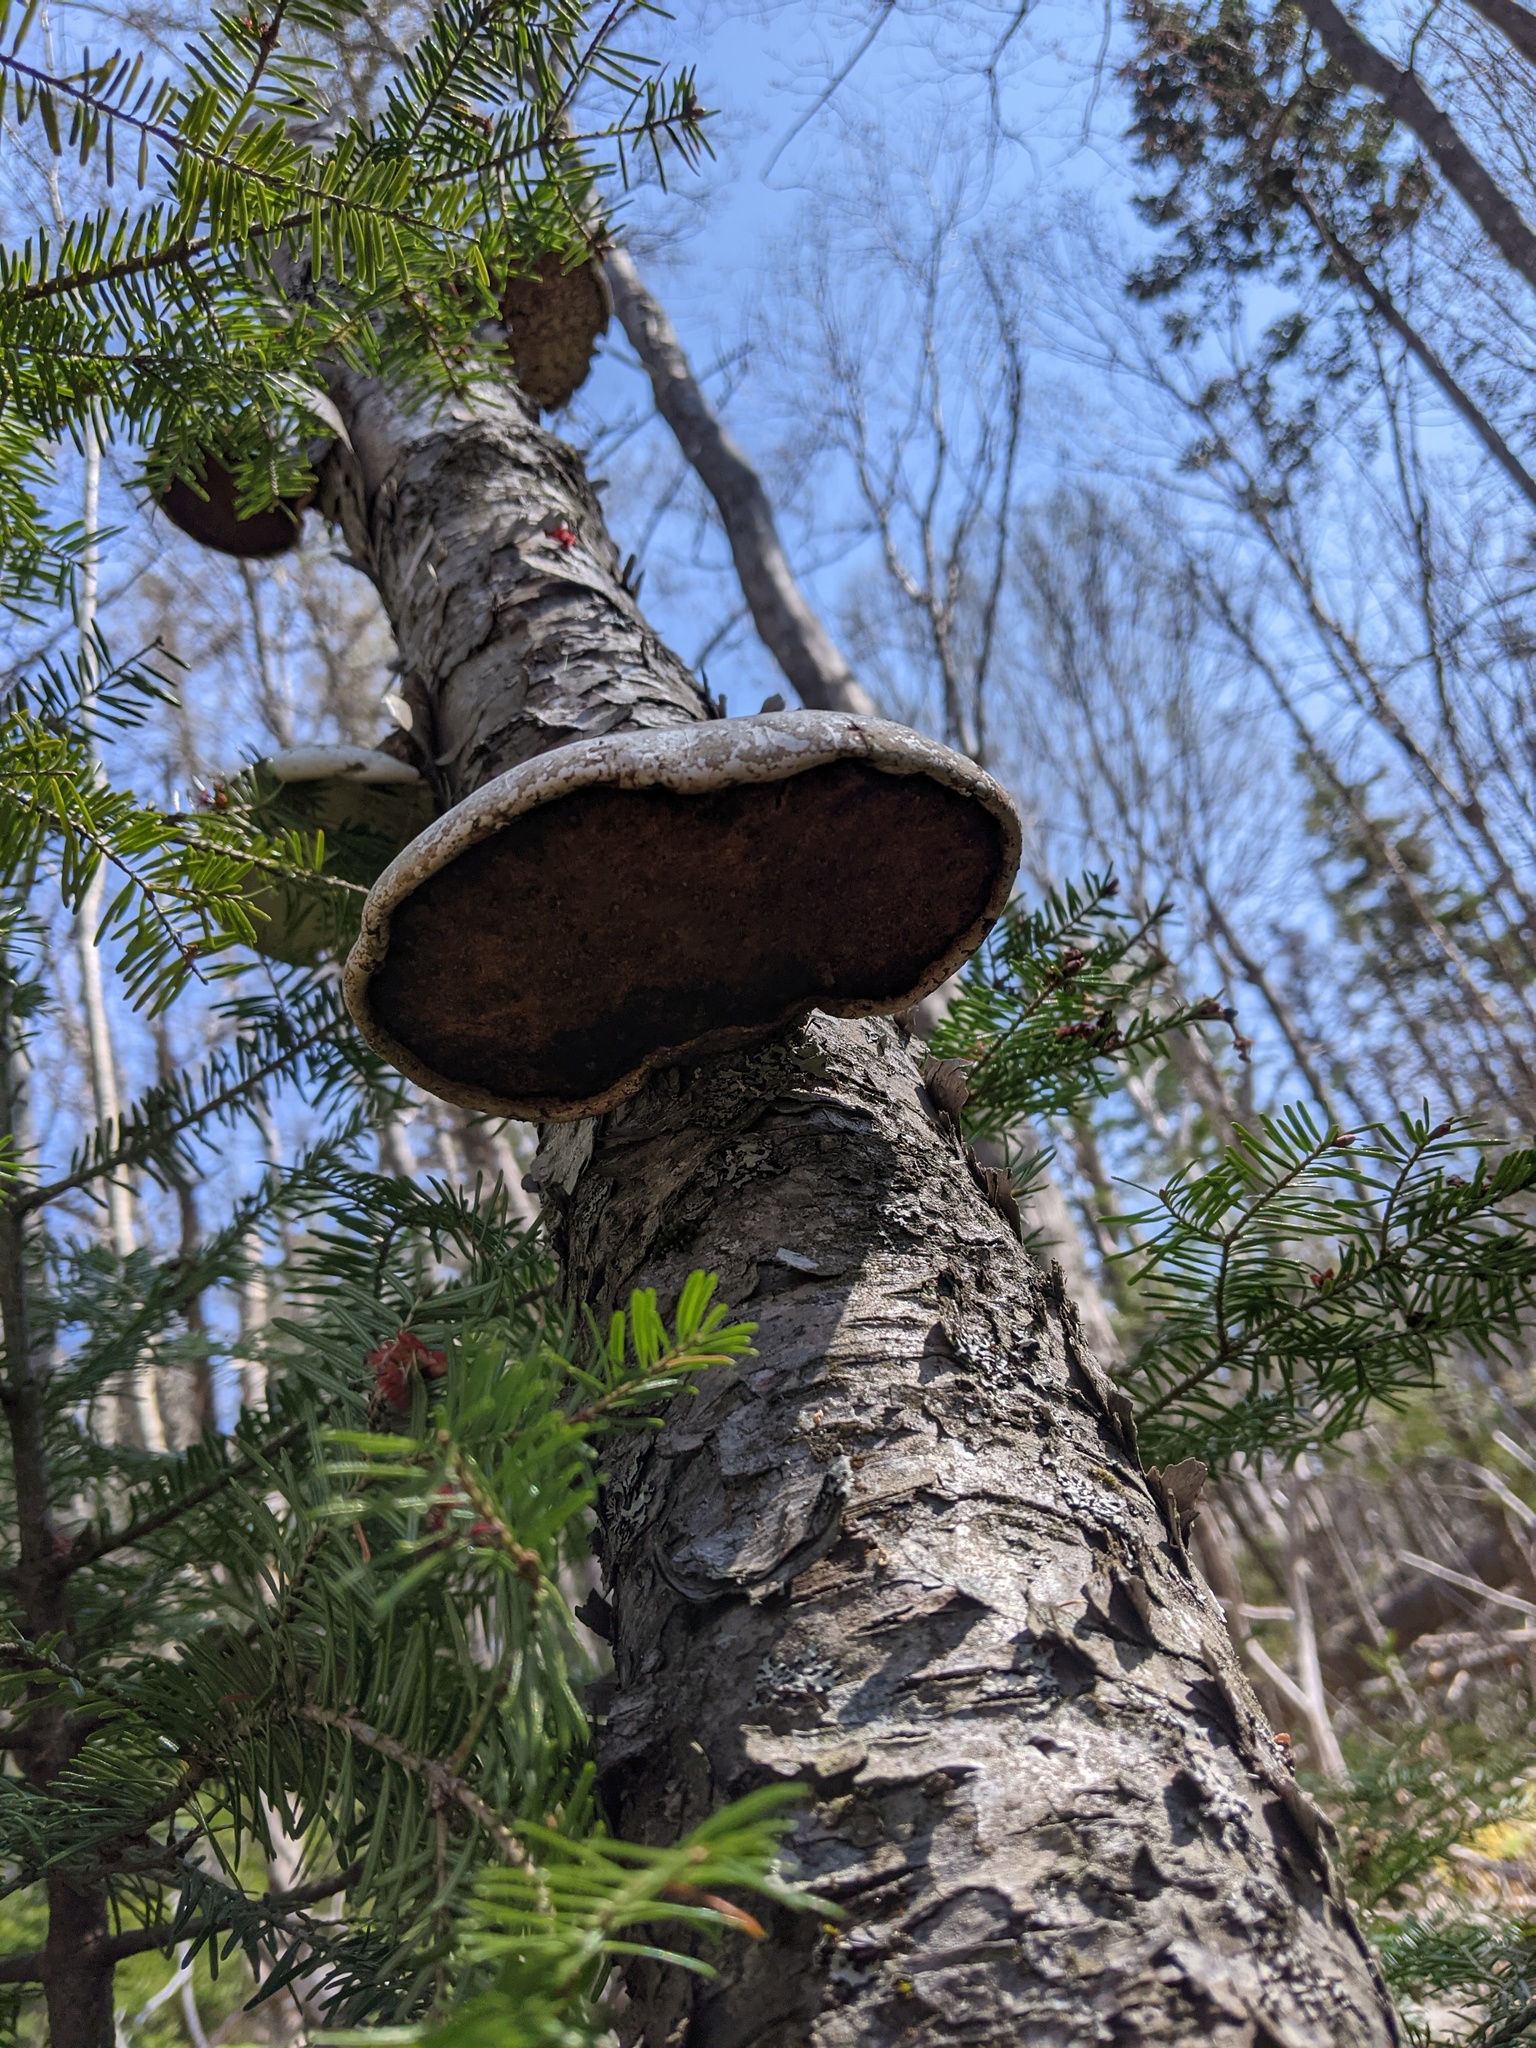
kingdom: Fungi
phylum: Basidiomycota
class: Agaricomycetes
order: Polyporales
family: Fomitopsidaceae
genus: Fomitopsis
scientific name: Fomitopsis betulina
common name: Birch polypore
